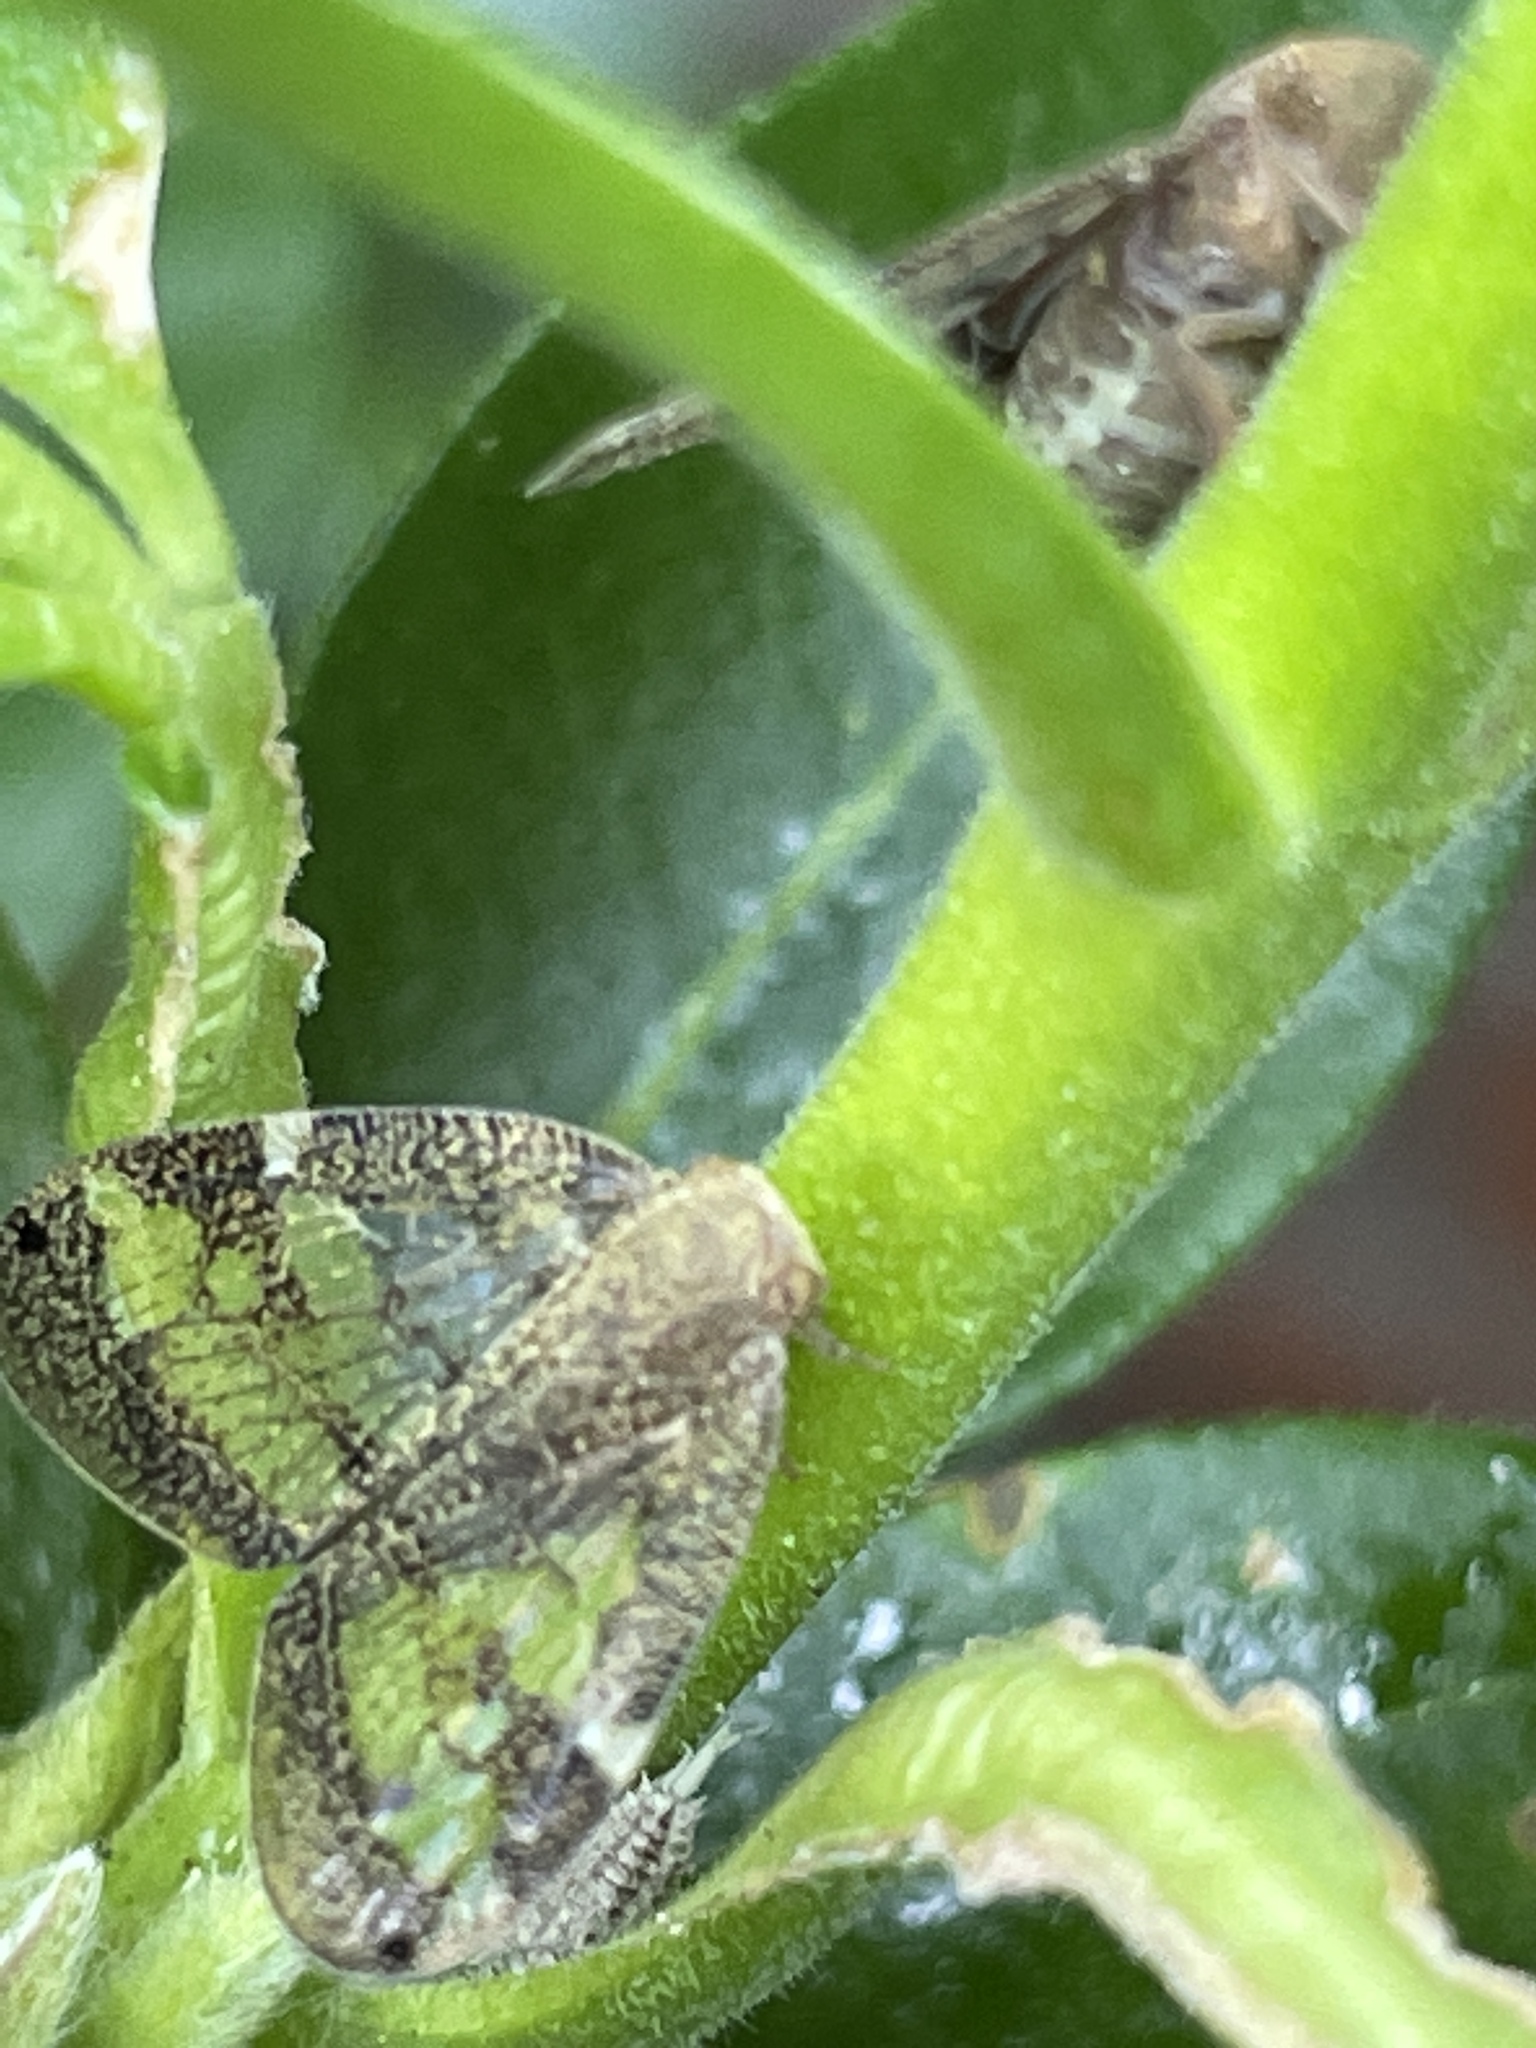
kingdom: Animalia
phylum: Arthropoda
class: Insecta
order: Hemiptera
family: Ricaniidae
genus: Scolypopa
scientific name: Scolypopa australis
